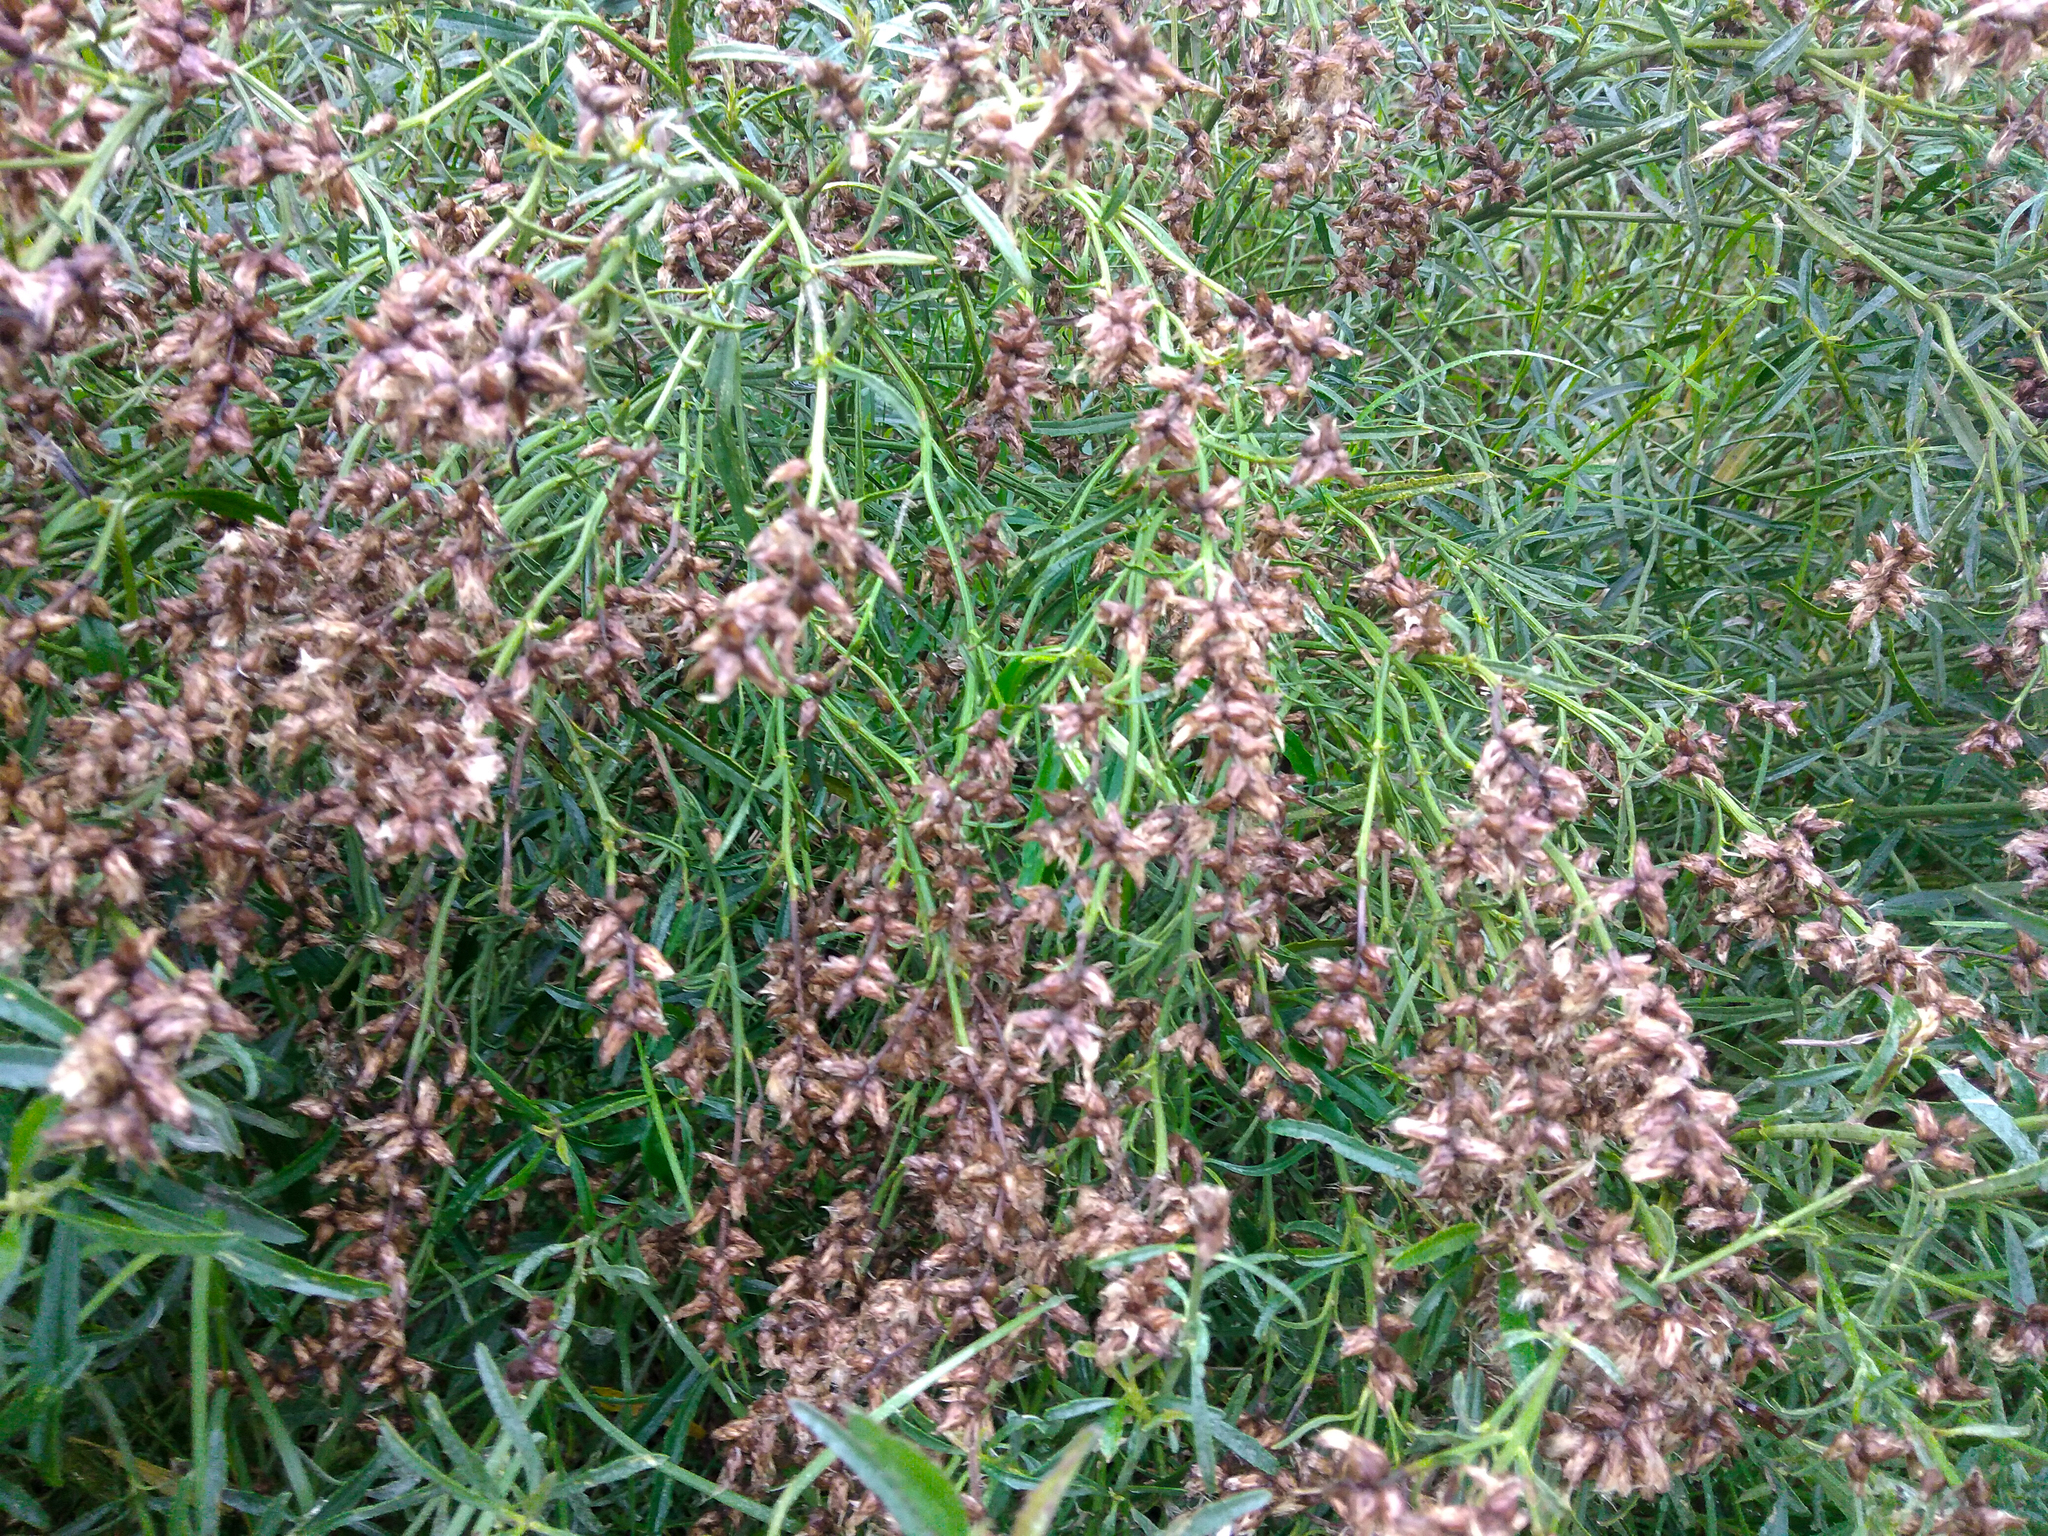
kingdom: Plantae
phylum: Tracheophyta
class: Magnoliopsida
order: Asterales
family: Asteraceae
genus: Baccharis
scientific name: Baccharis spicata
